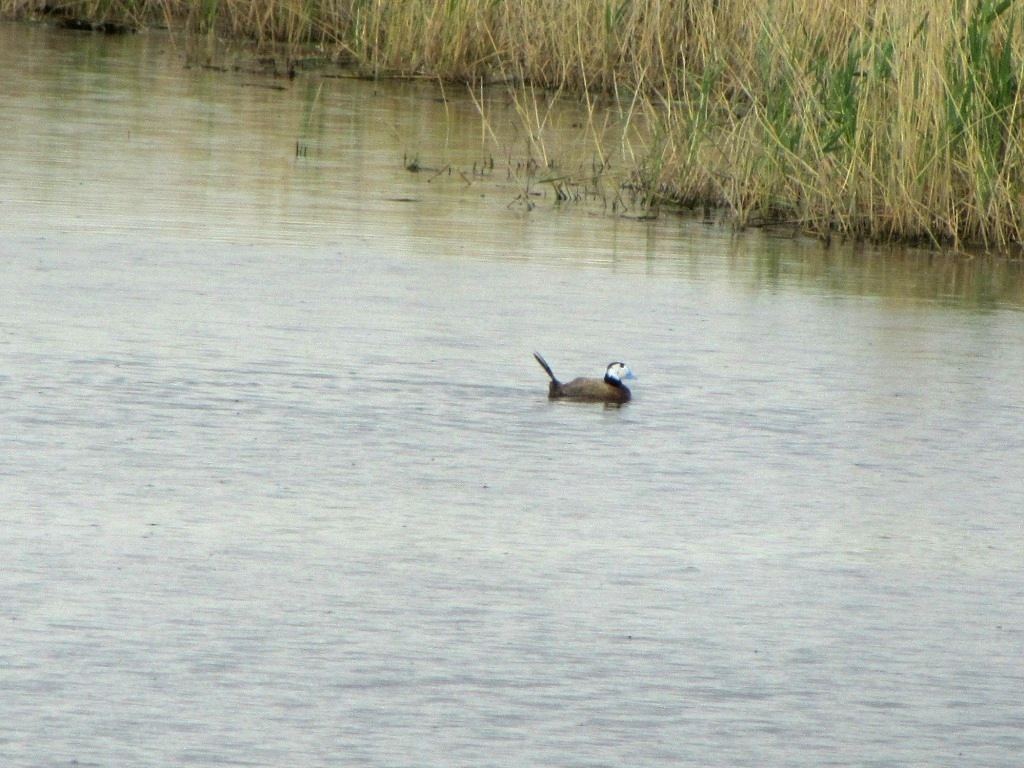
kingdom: Animalia
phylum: Chordata
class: Aves
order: Anseriformes
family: Anatidae
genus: Oxyura
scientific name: Oxyura leucocephala
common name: White-headed duck
